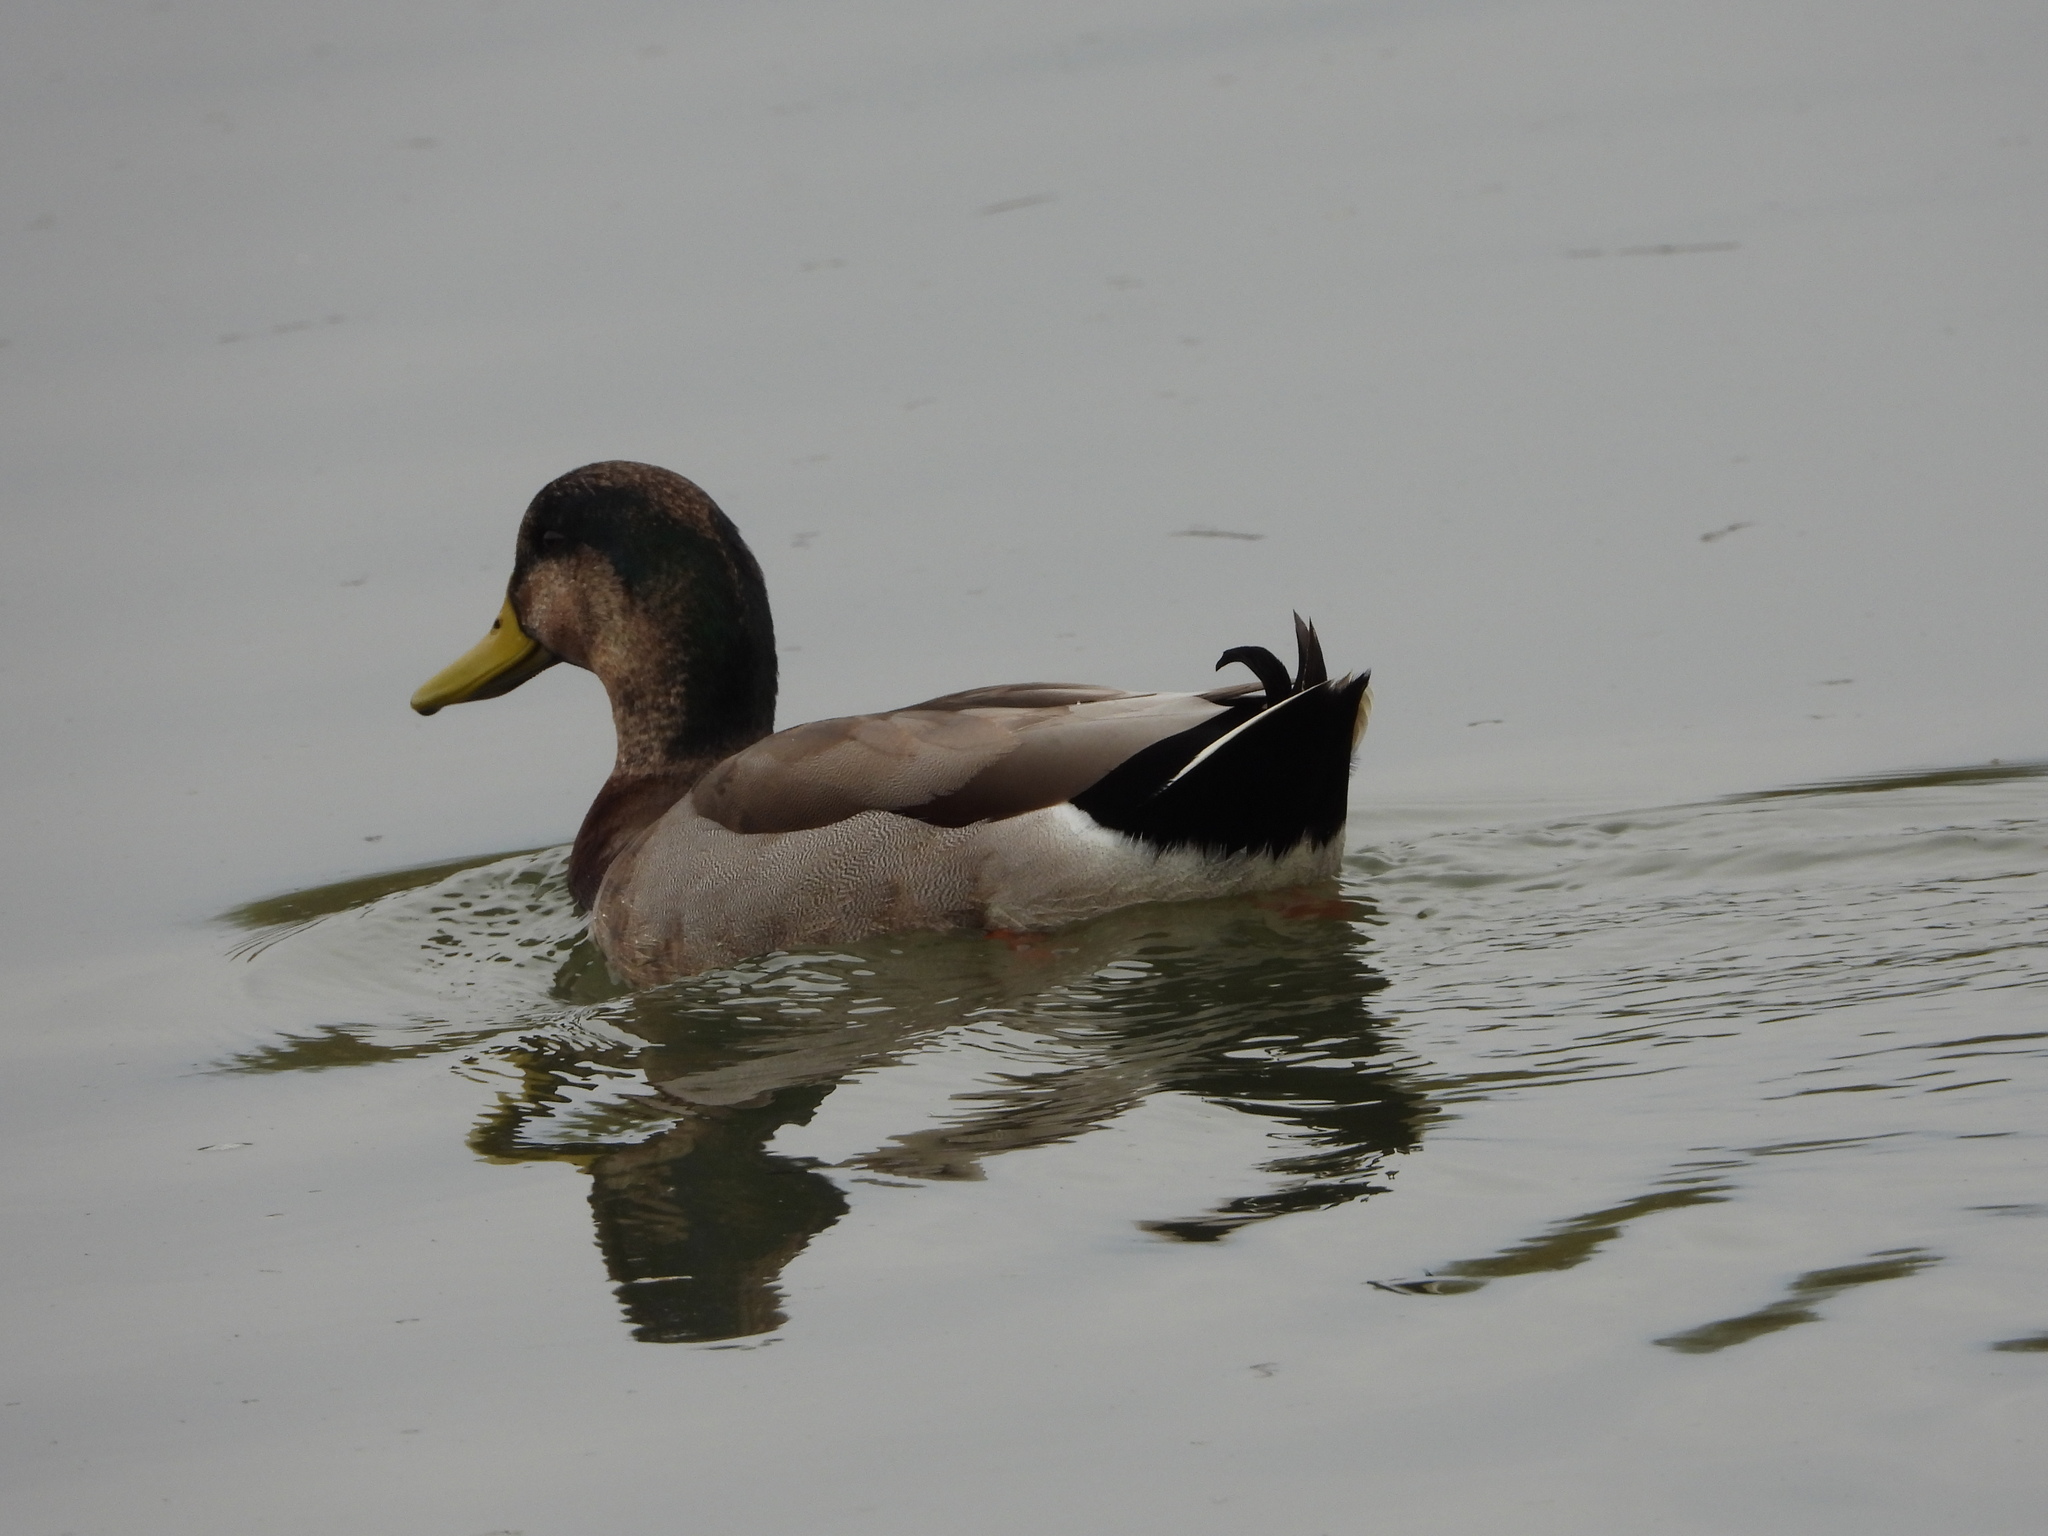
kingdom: Animalia
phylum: Chordata
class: Aves
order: Anseriformes
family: Anatidae
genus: Anas
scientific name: Anas
